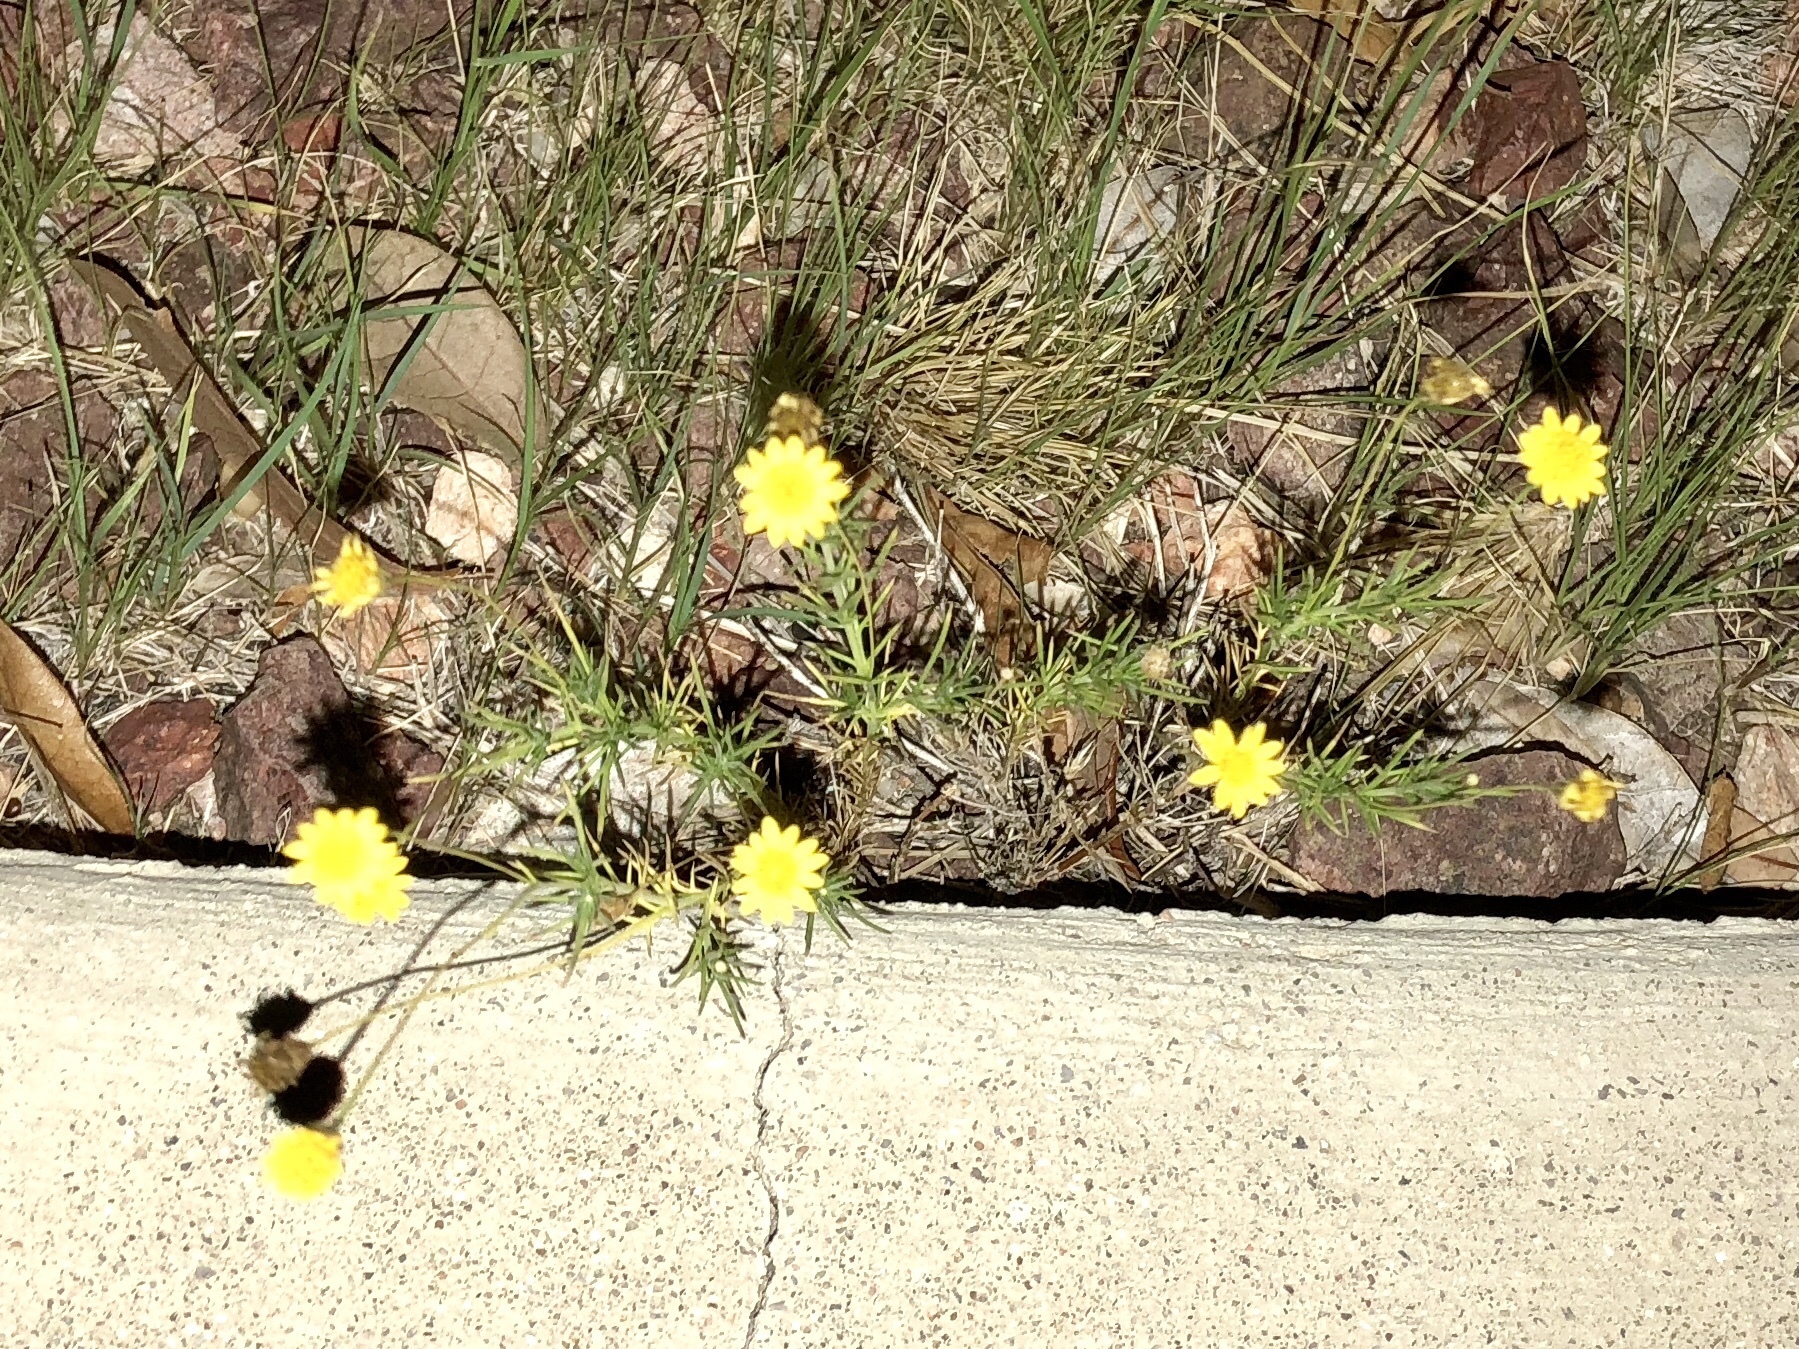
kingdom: Plantae
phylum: Tracheophyta
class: Magnoliopsida
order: Asterales
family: Asteraceae
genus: Thymophylla
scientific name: Thymophylla pentachaeta
